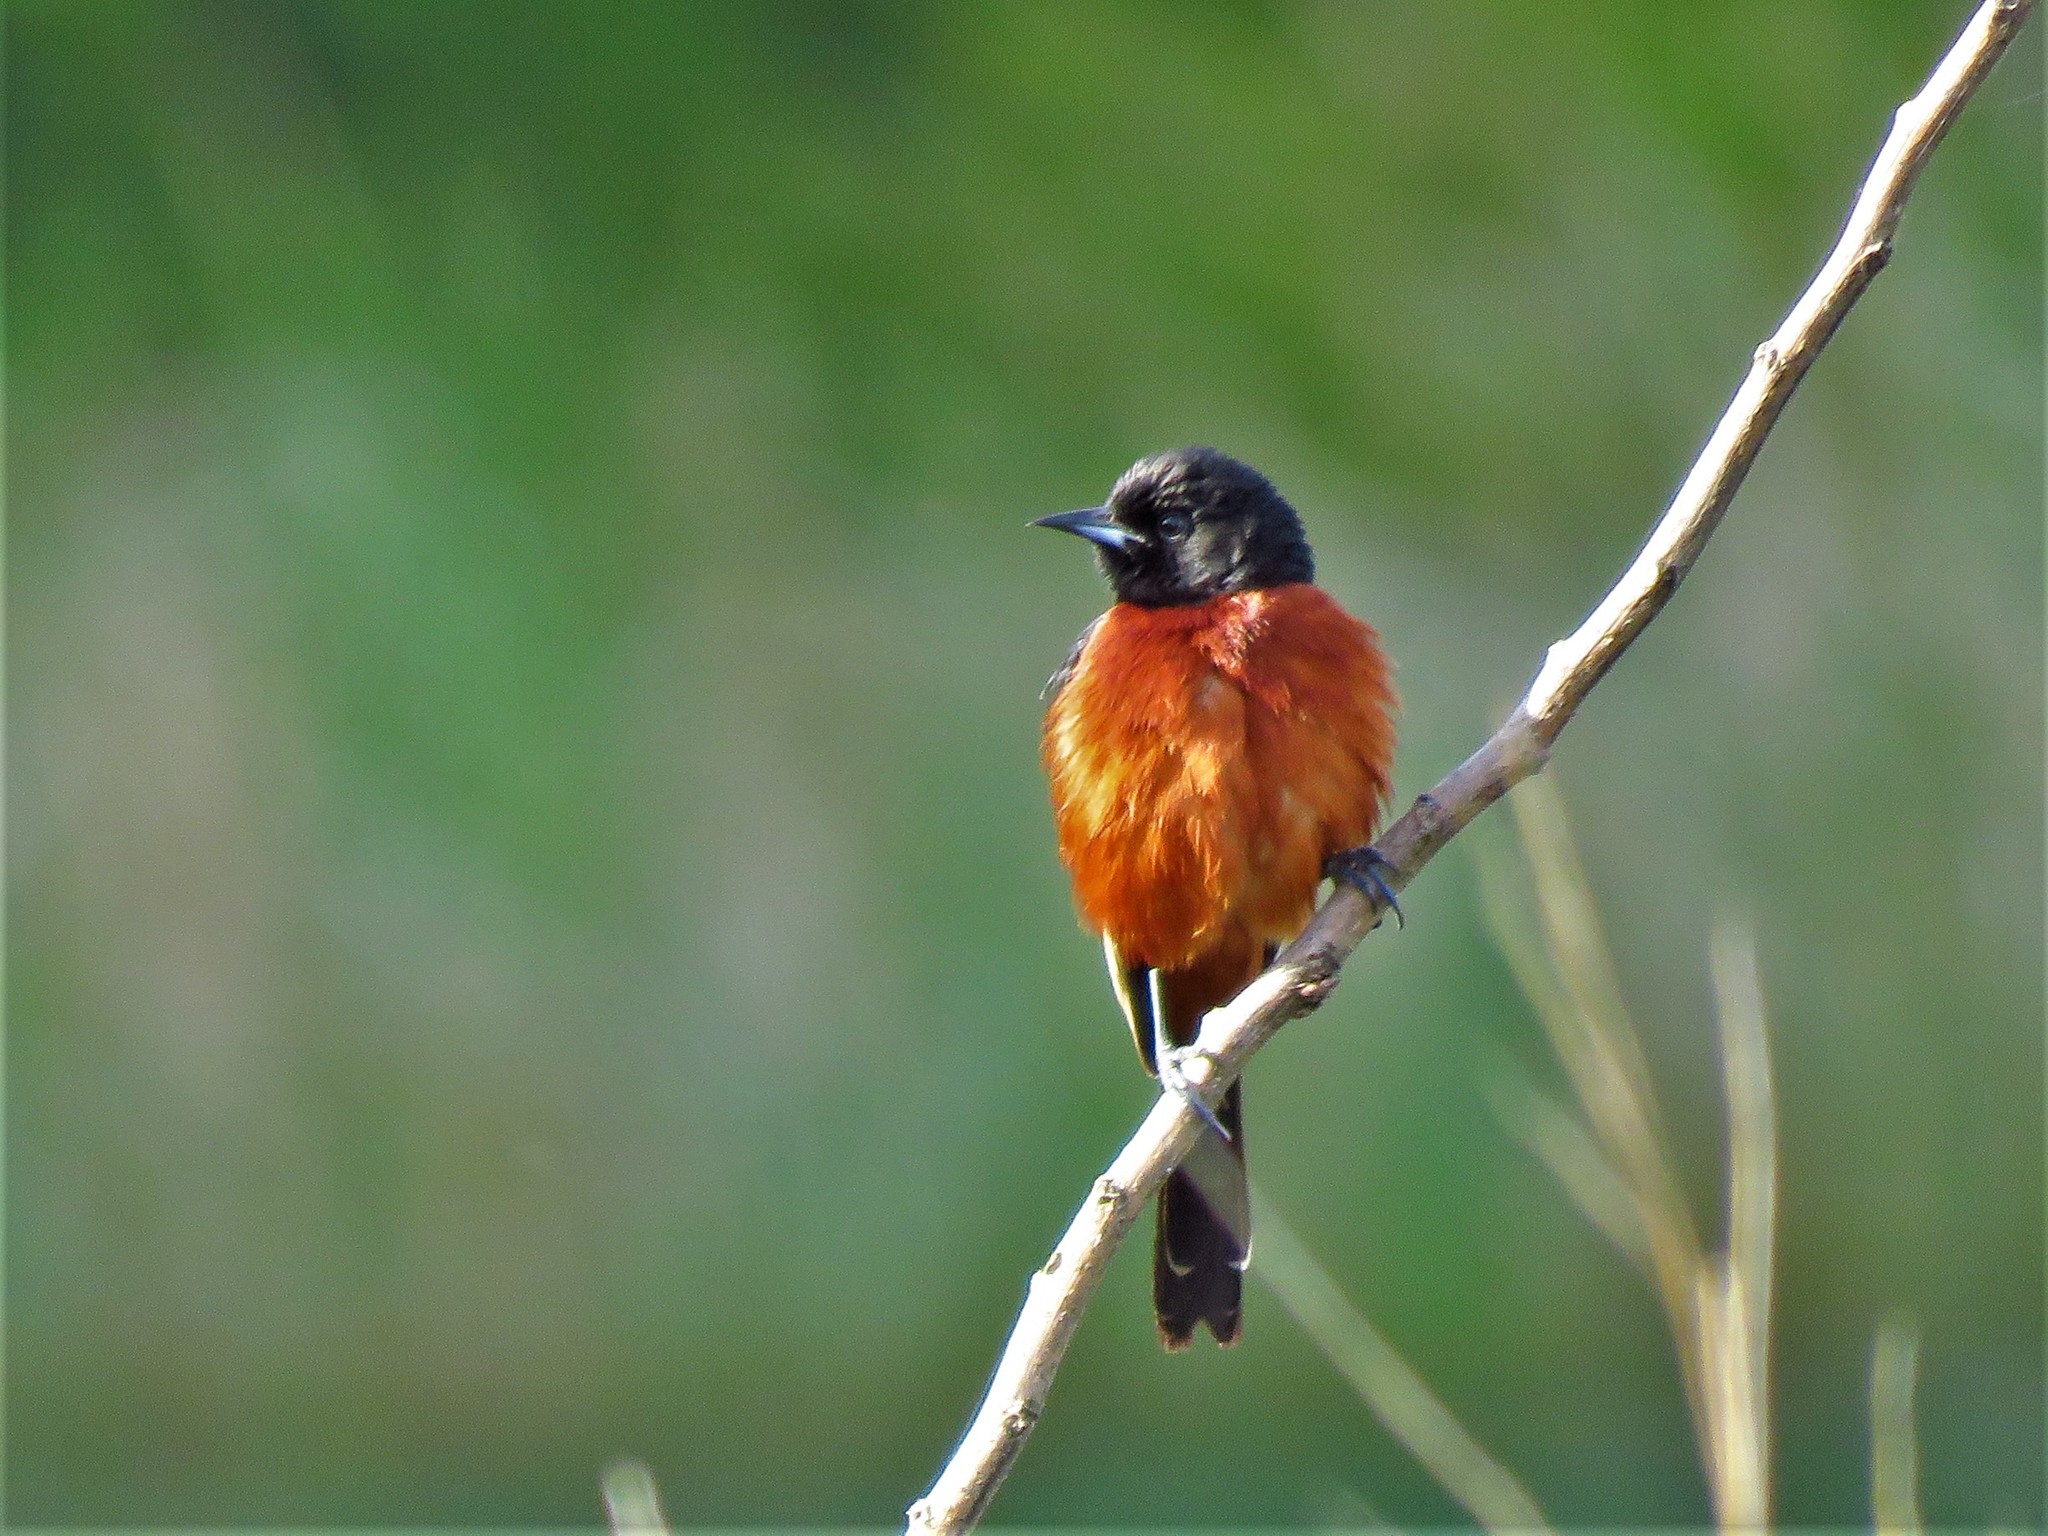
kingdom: Animalia
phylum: Chordata
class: Aves
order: Passeriformes
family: Icteridae
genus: Icterus
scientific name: Icterus spurius
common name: Orchard oriole
